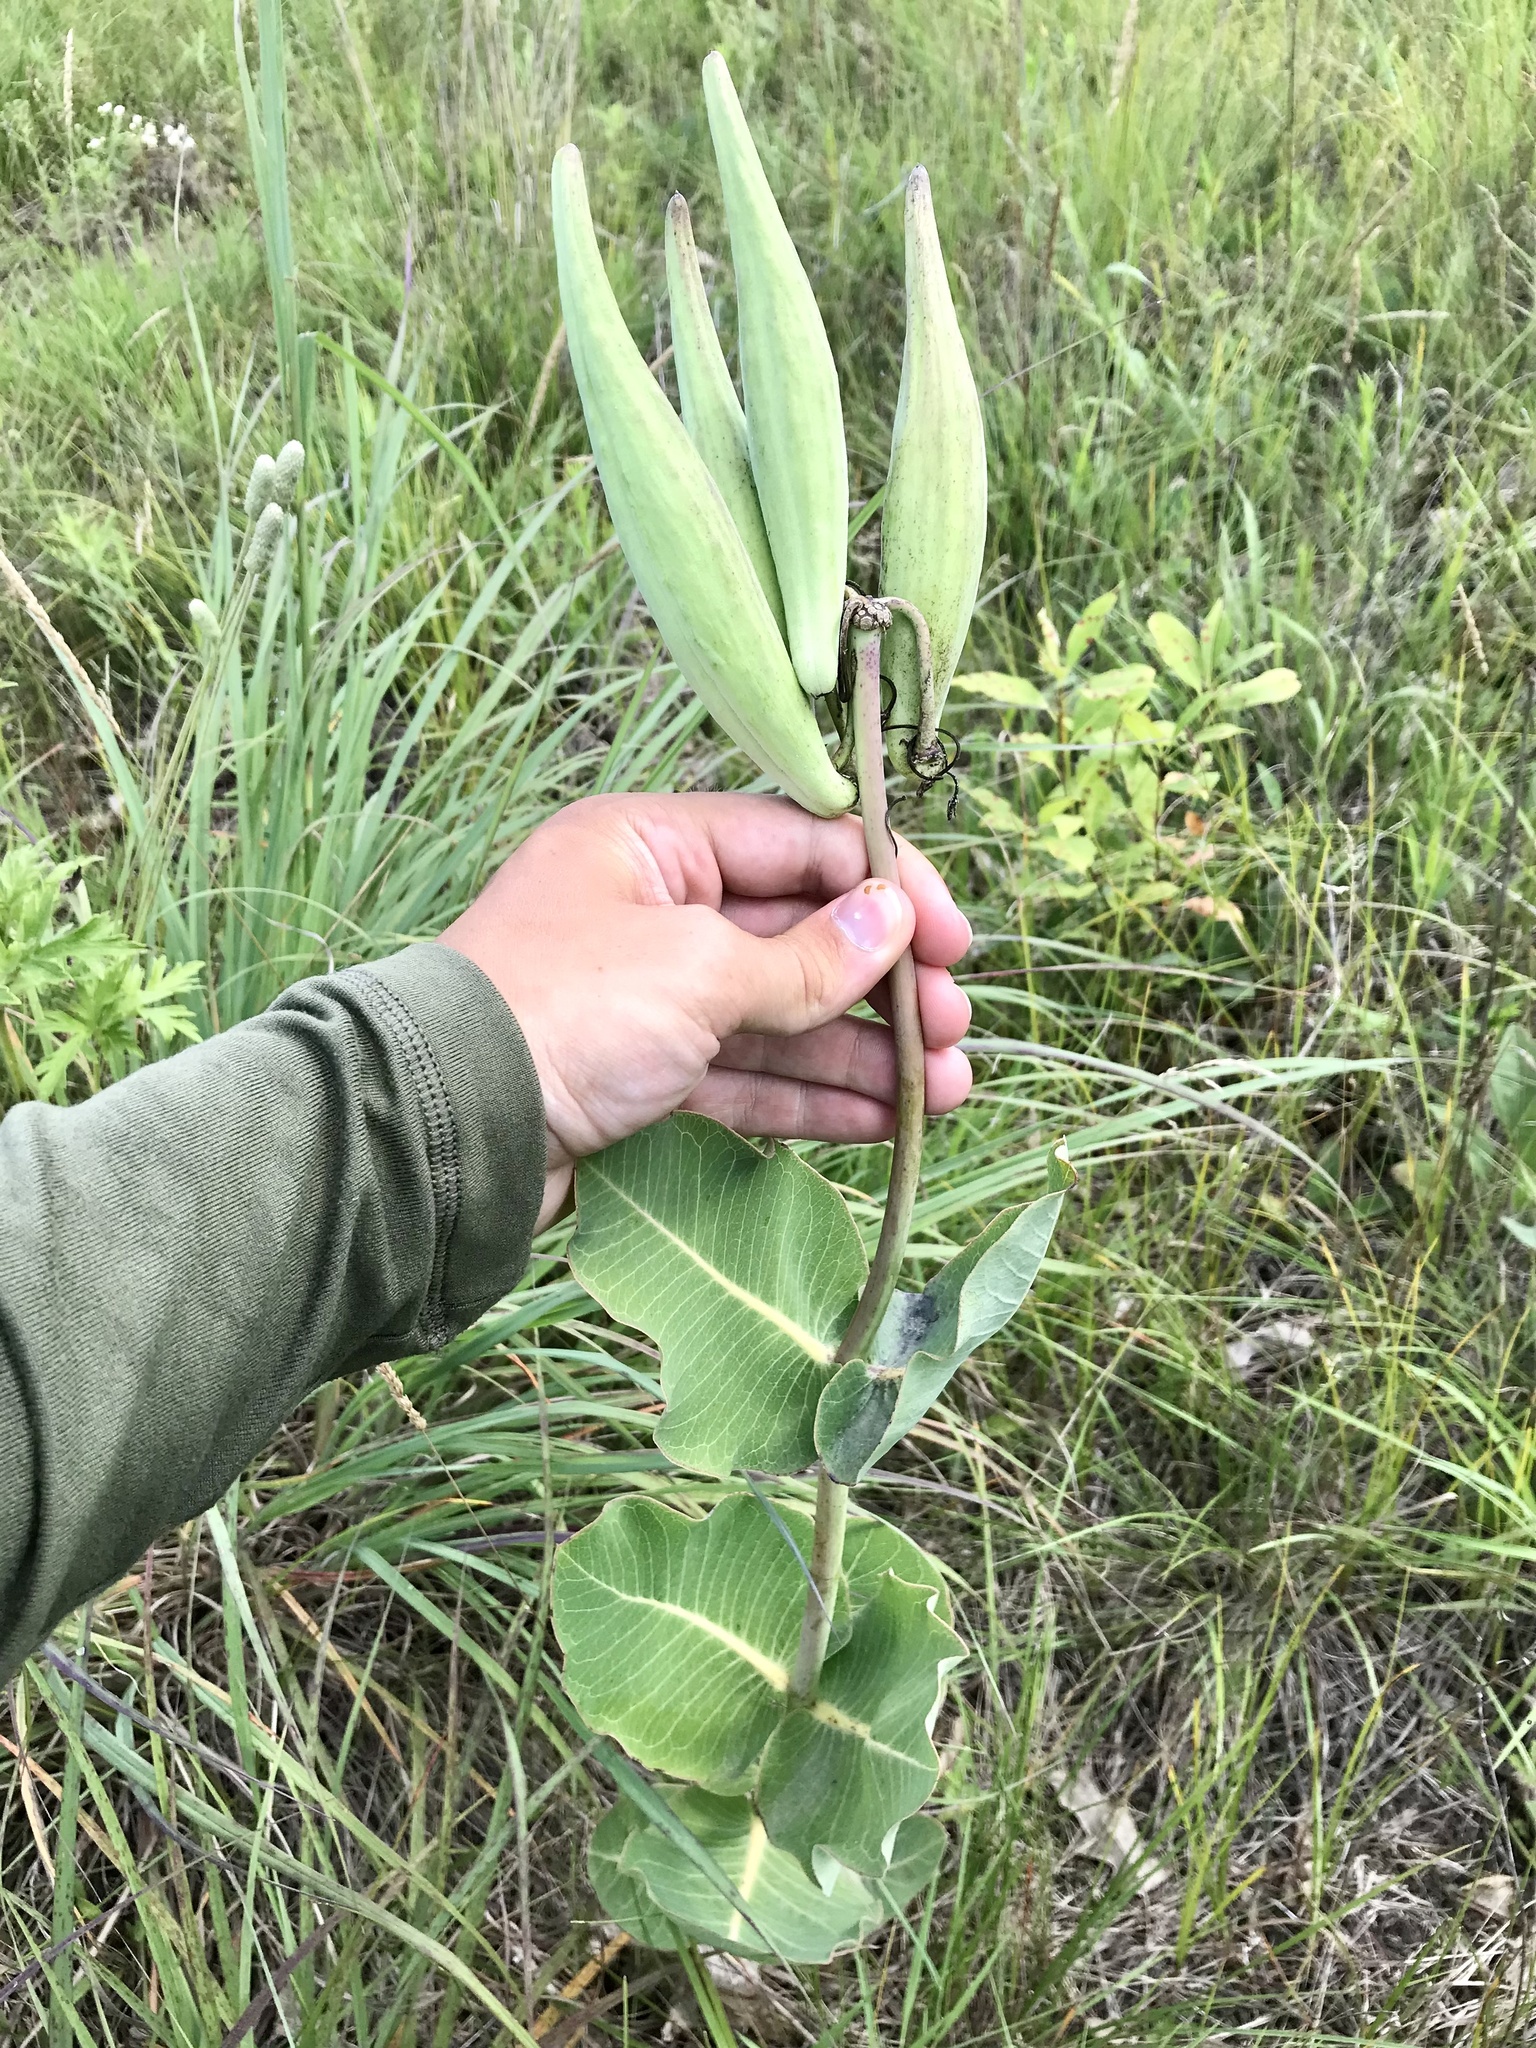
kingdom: Plantae
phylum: Tracheophyta
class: Magnoliopsida
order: Gentianales
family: Apocynaceae
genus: Asclepias
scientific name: Asclepias amplexicaulis
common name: Blunt-leaf milkweed
